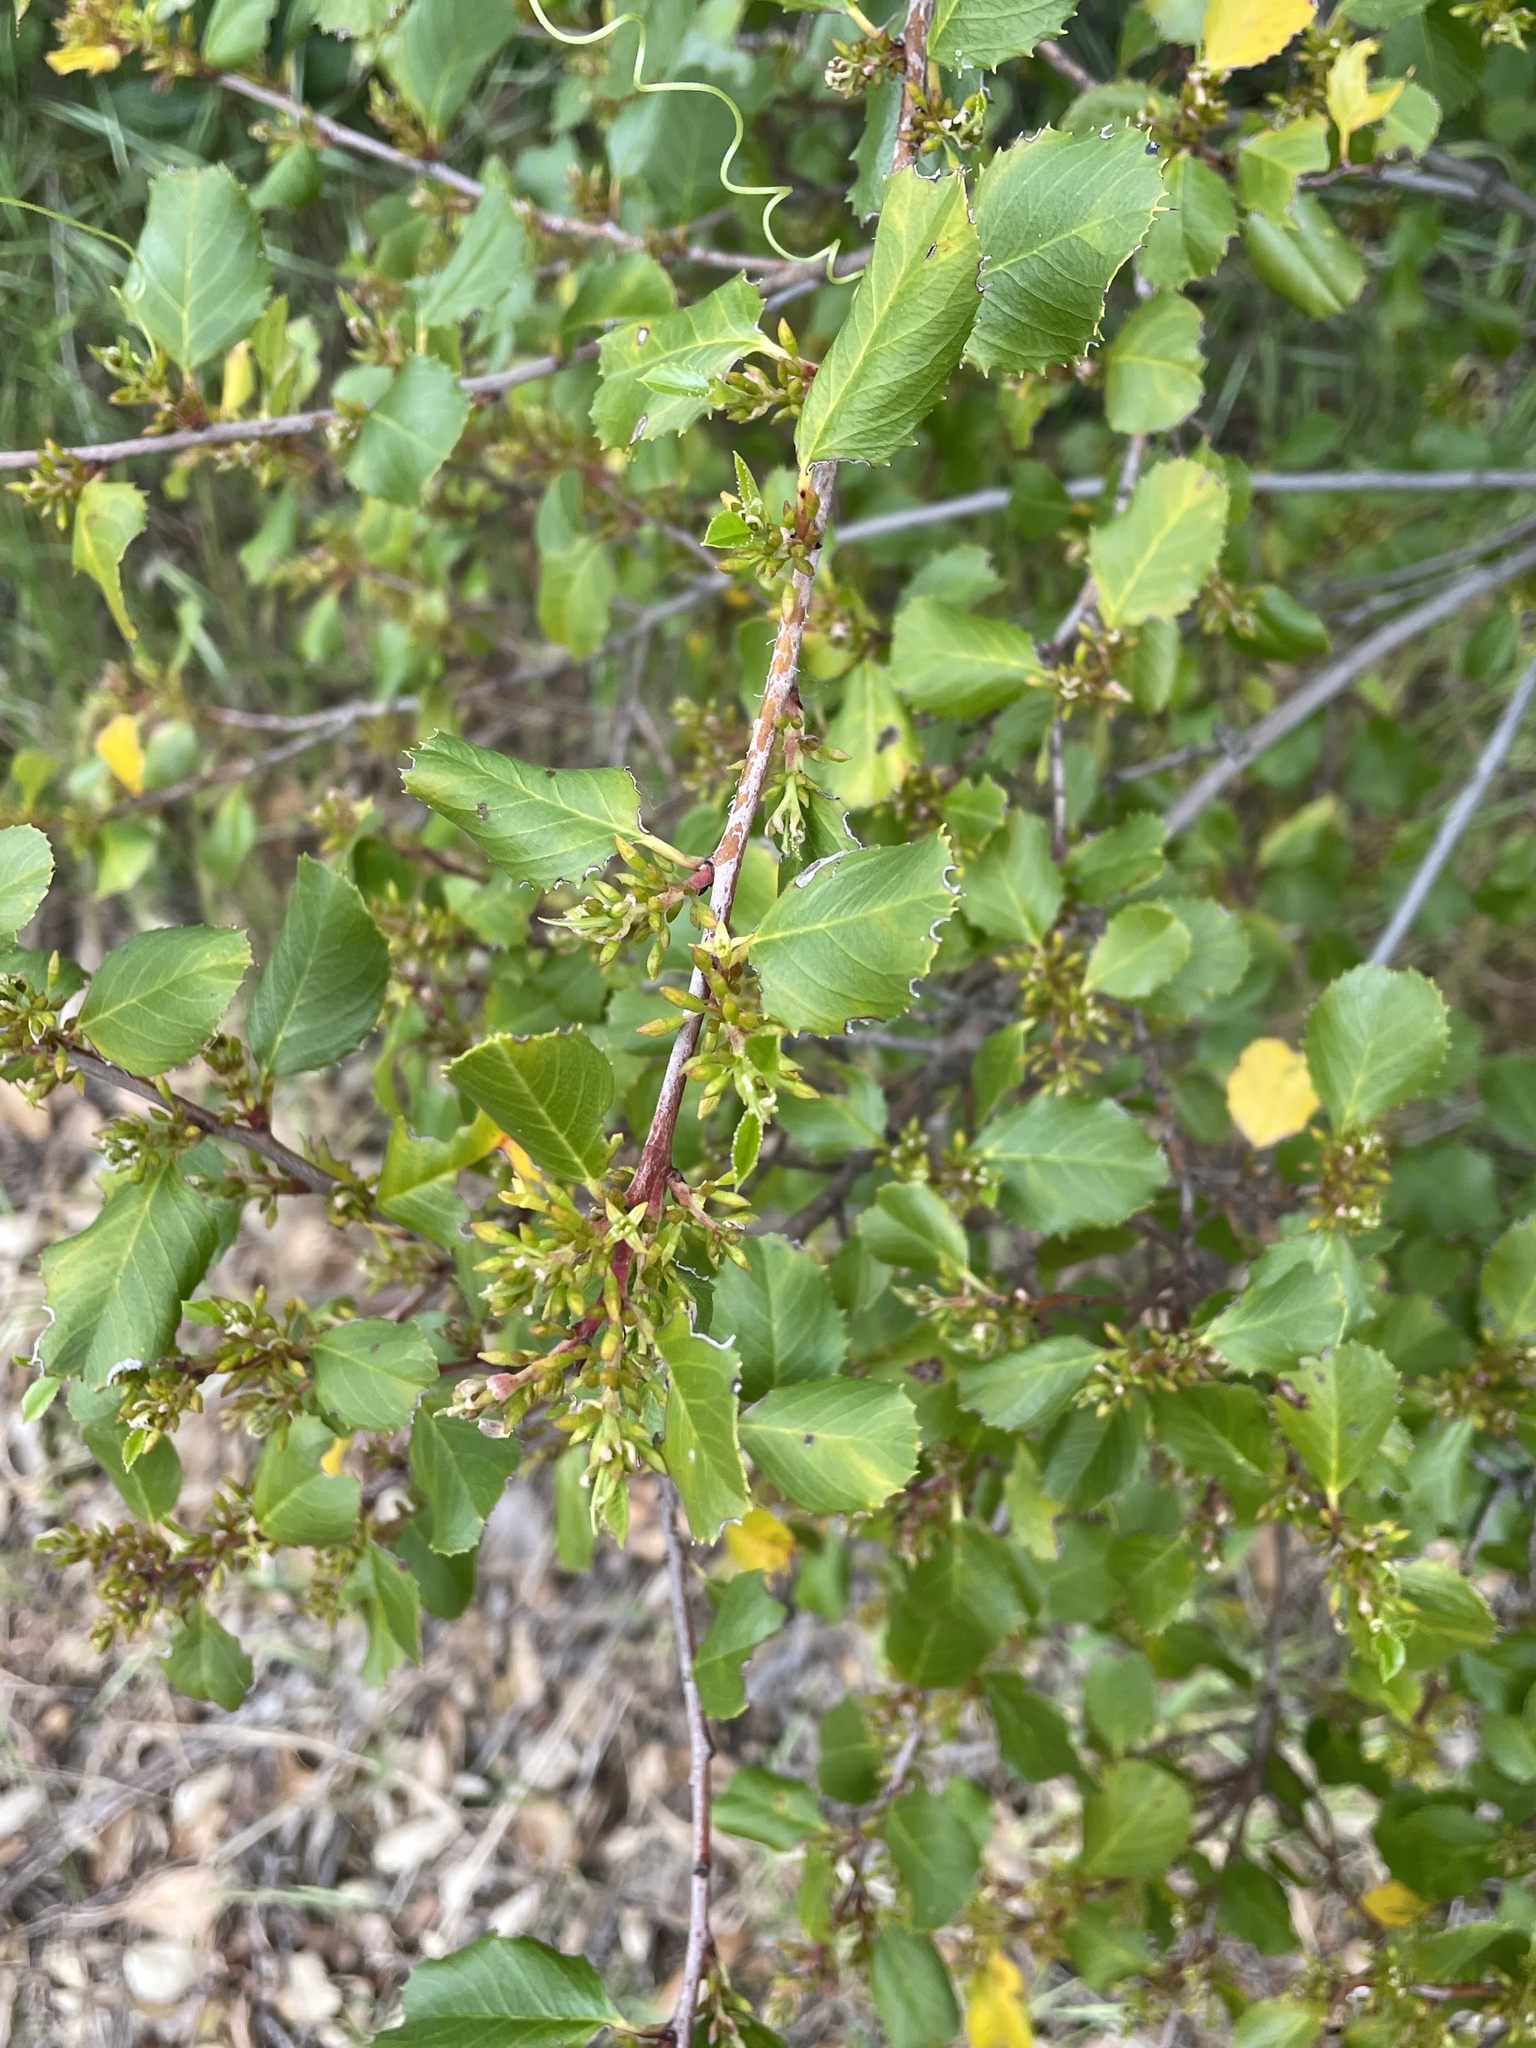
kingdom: Plantae
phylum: Tracheophyta
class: Magnoliopsida
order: Rosales
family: Rhamnaceae
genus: Endotropis
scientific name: Endotropis crocea
